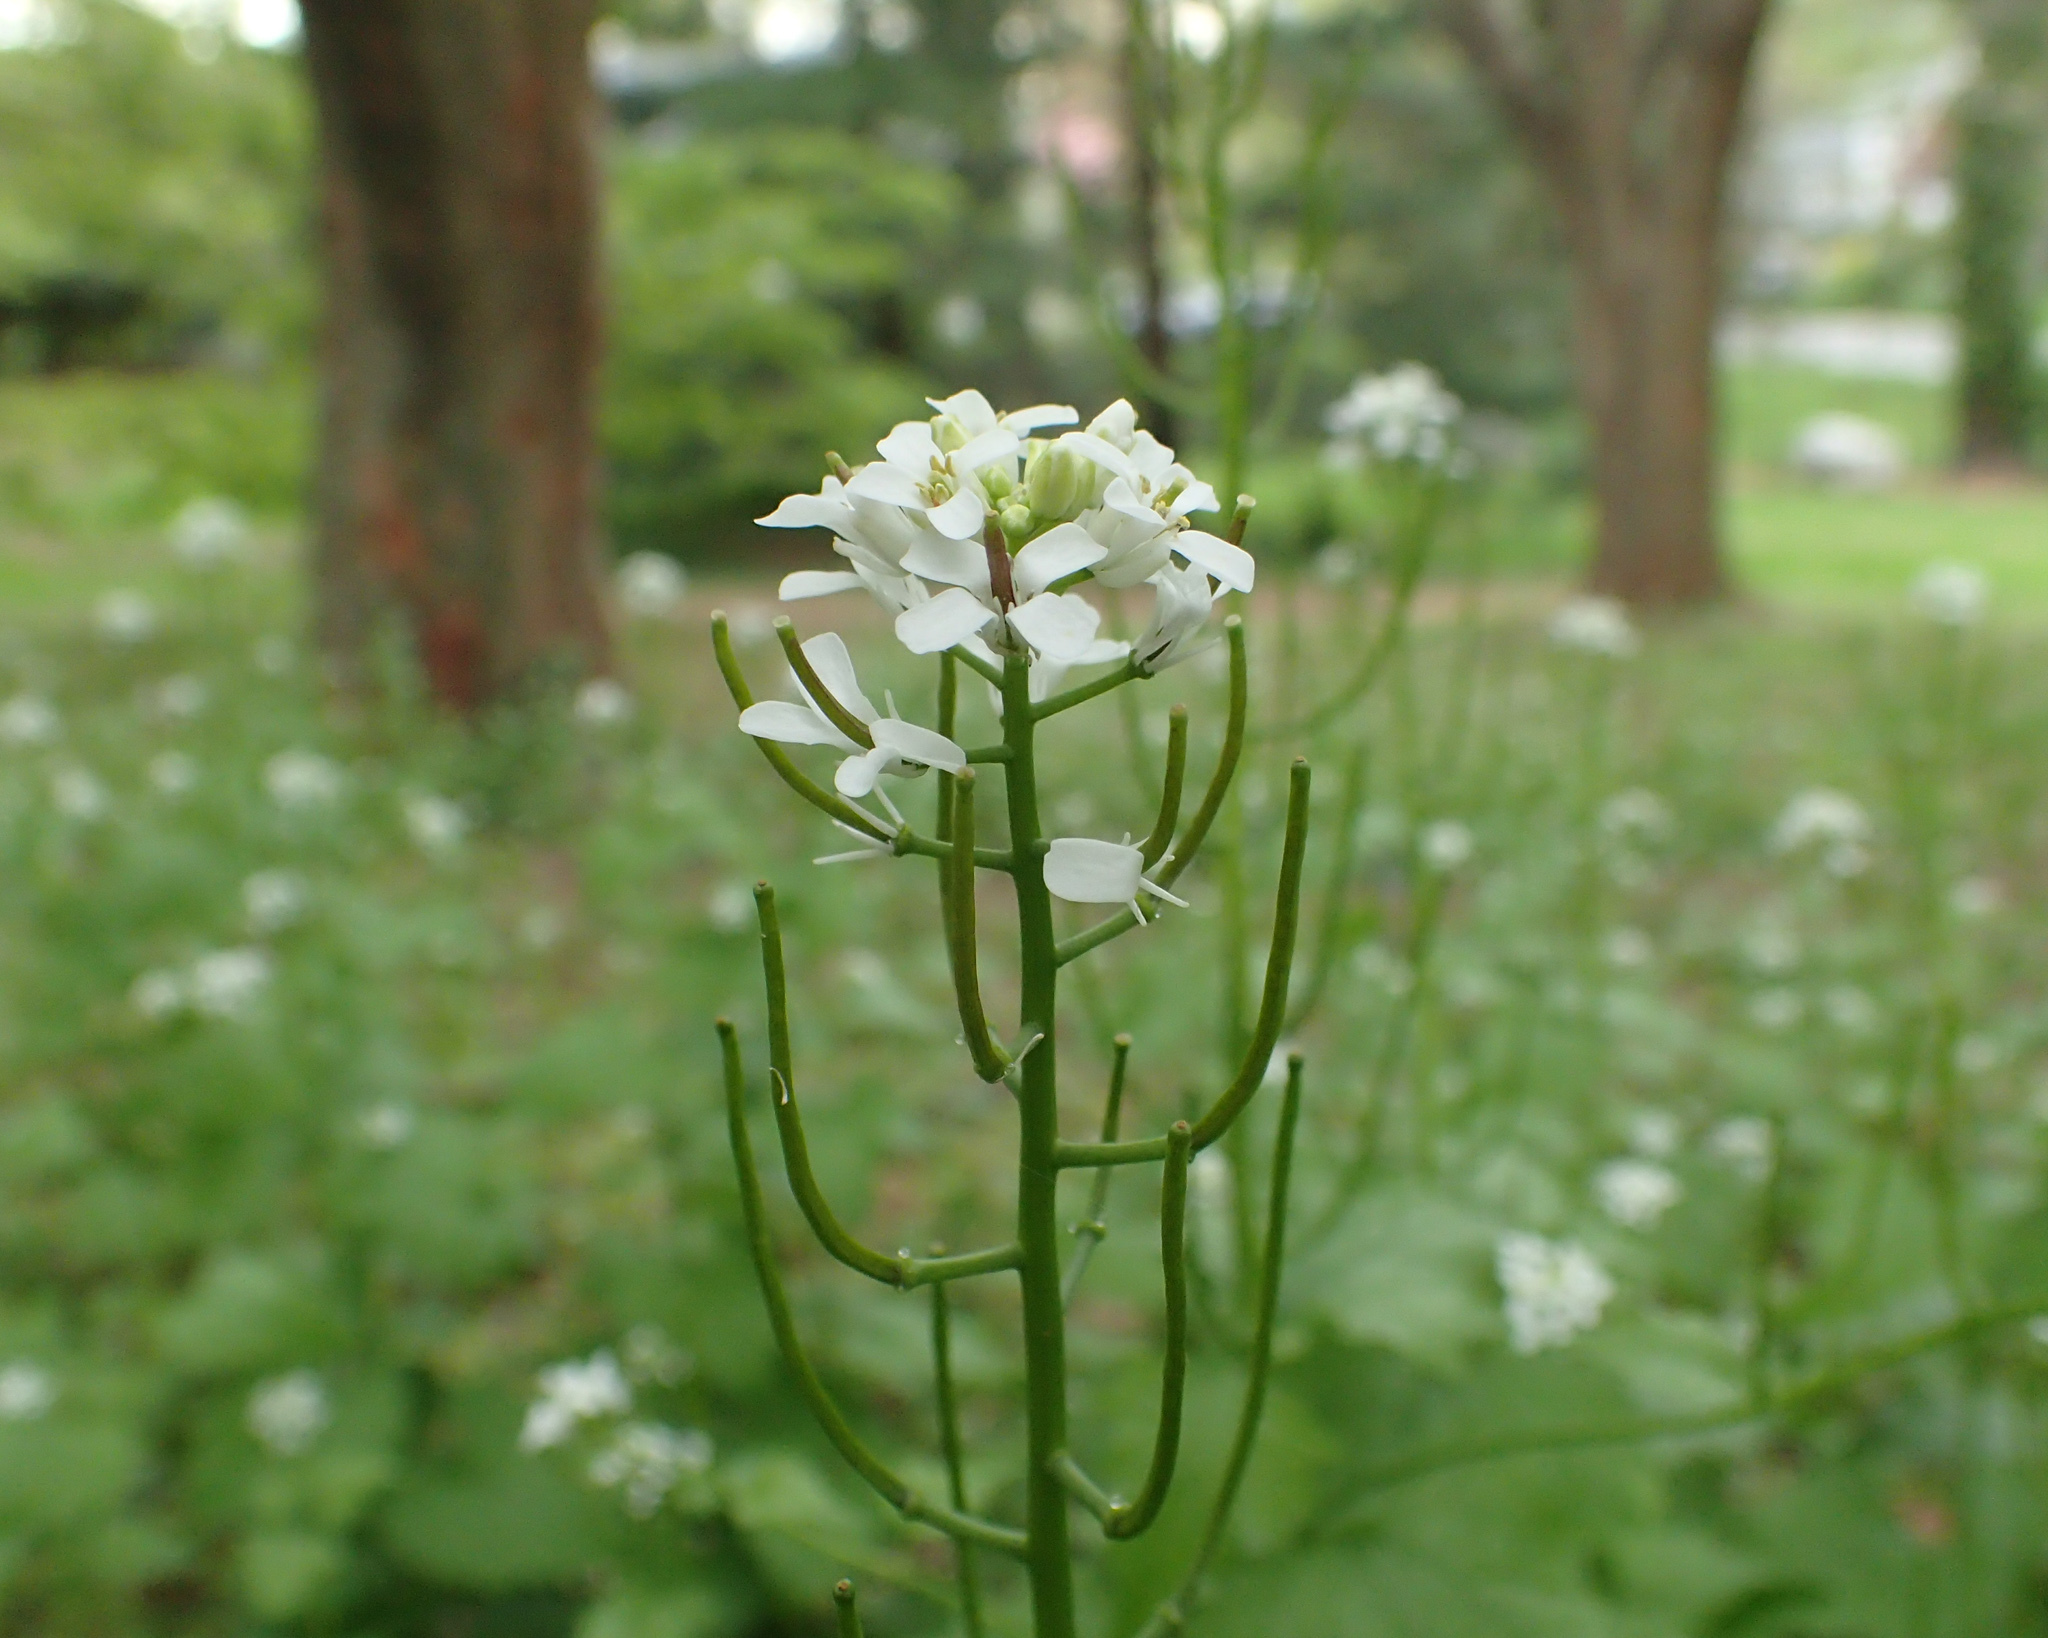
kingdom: Plantae
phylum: Tracheophyta
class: Magnoliopsida
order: Brassicales
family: Brassicaceae
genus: Alliaria
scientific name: Alliaria petiolata
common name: Garlic mustard
